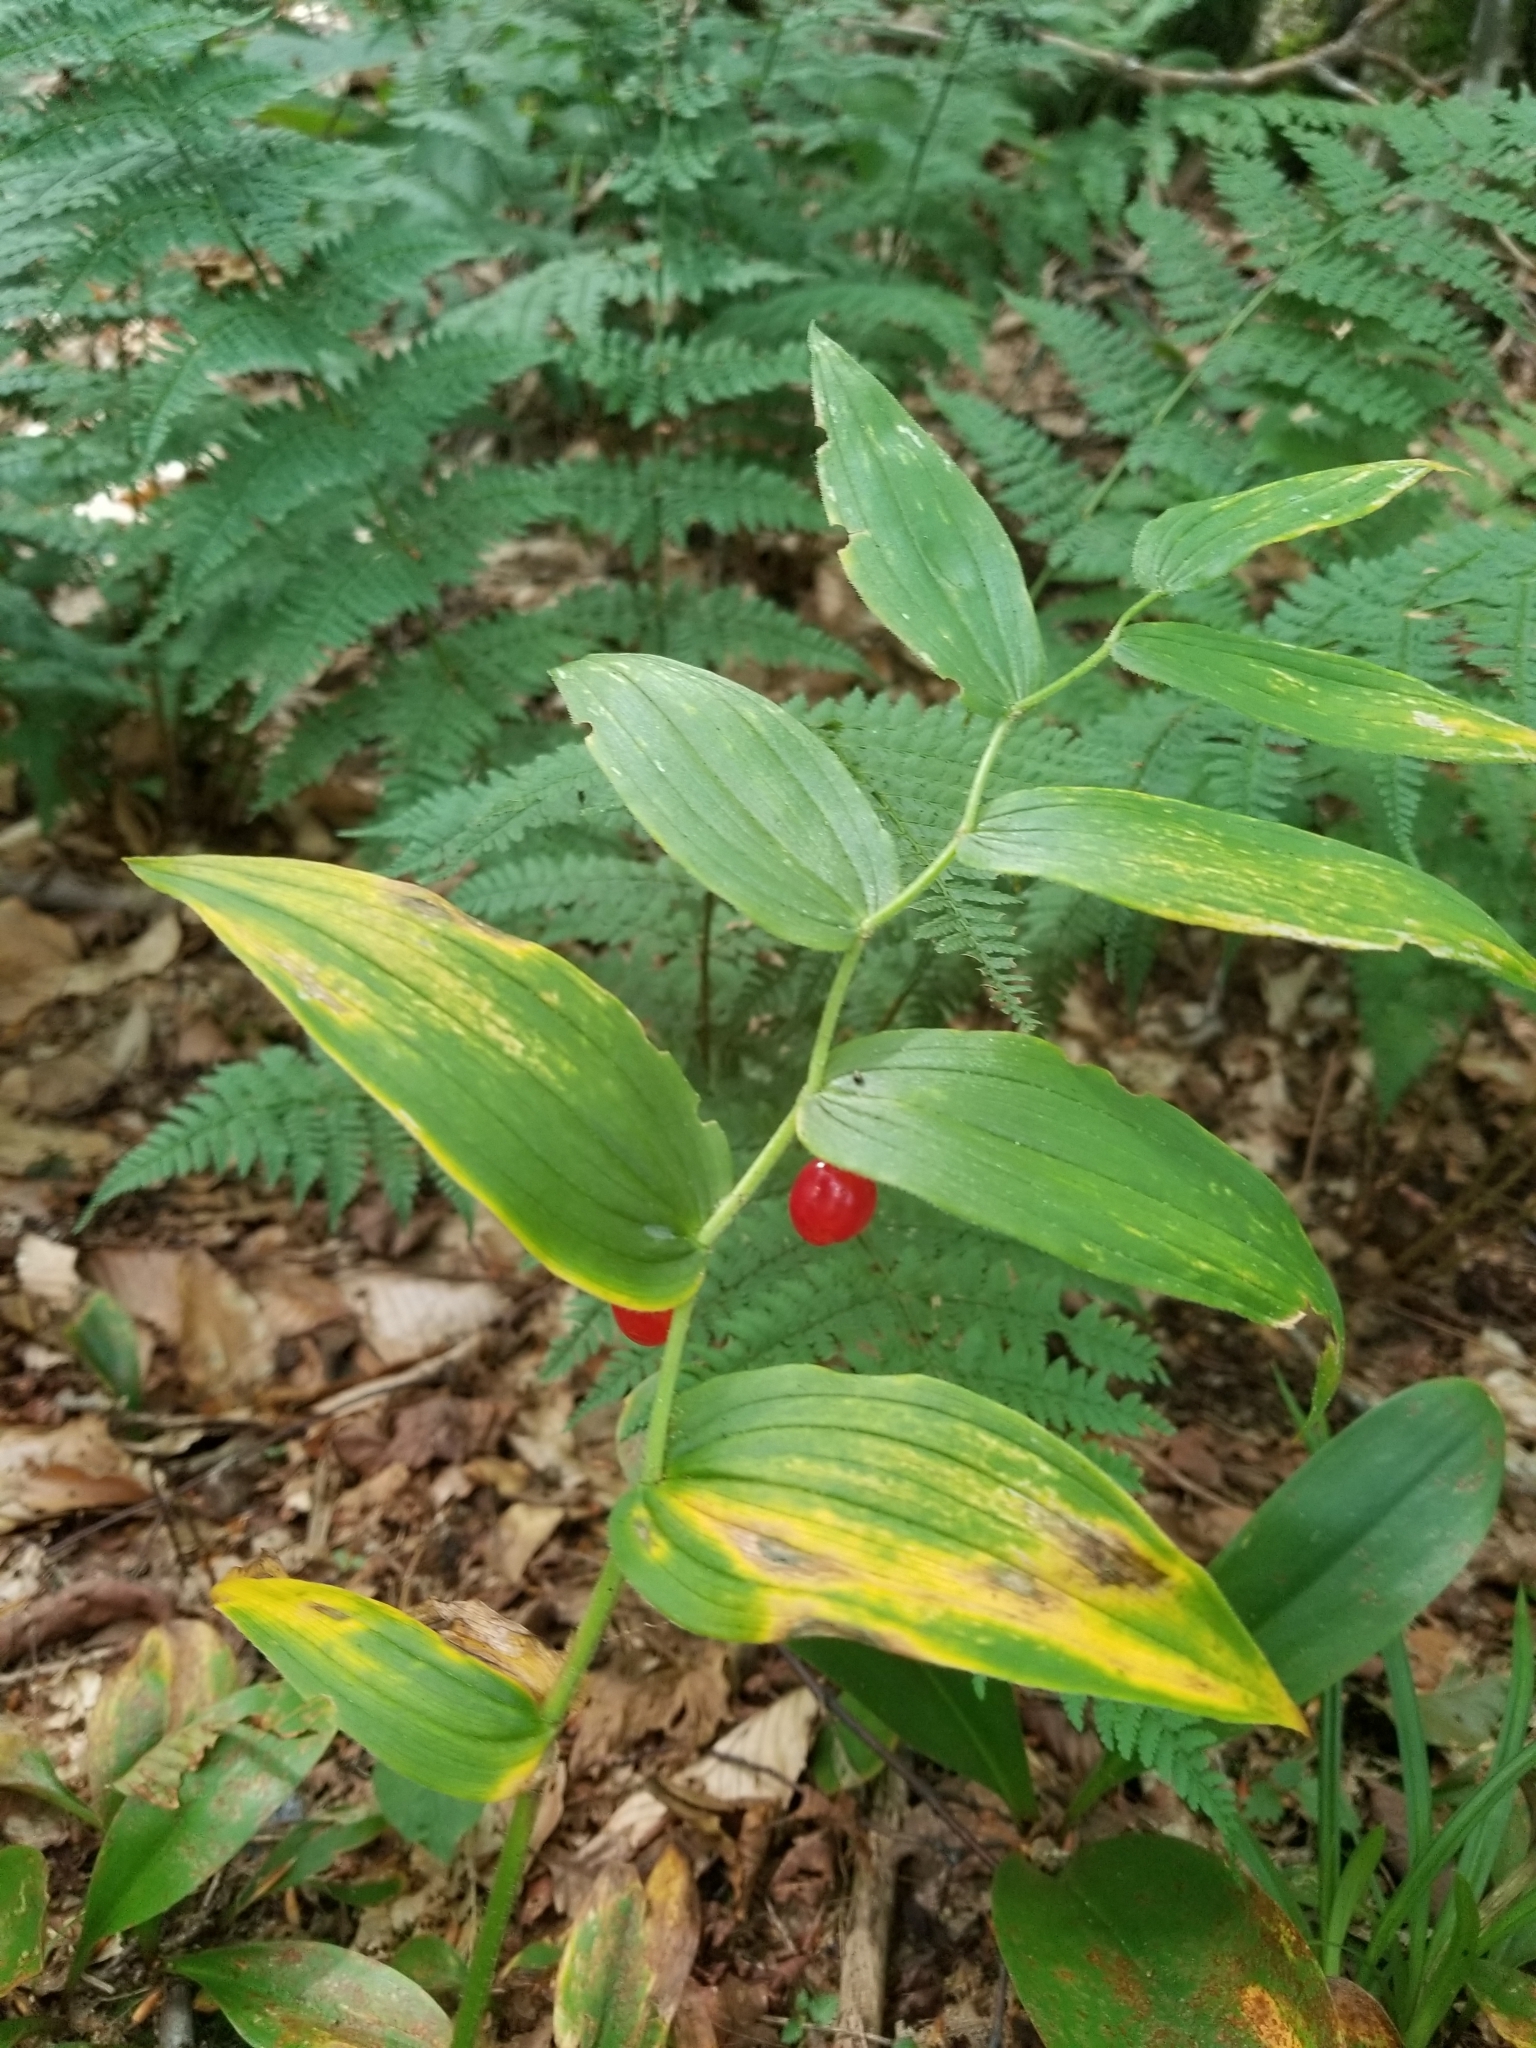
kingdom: Plantae
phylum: Tracheophyta
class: Liliopsida
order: Liliales
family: Liliaceae
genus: Streptopus
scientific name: Streptopus lanceolatus
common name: Rose mandarin
